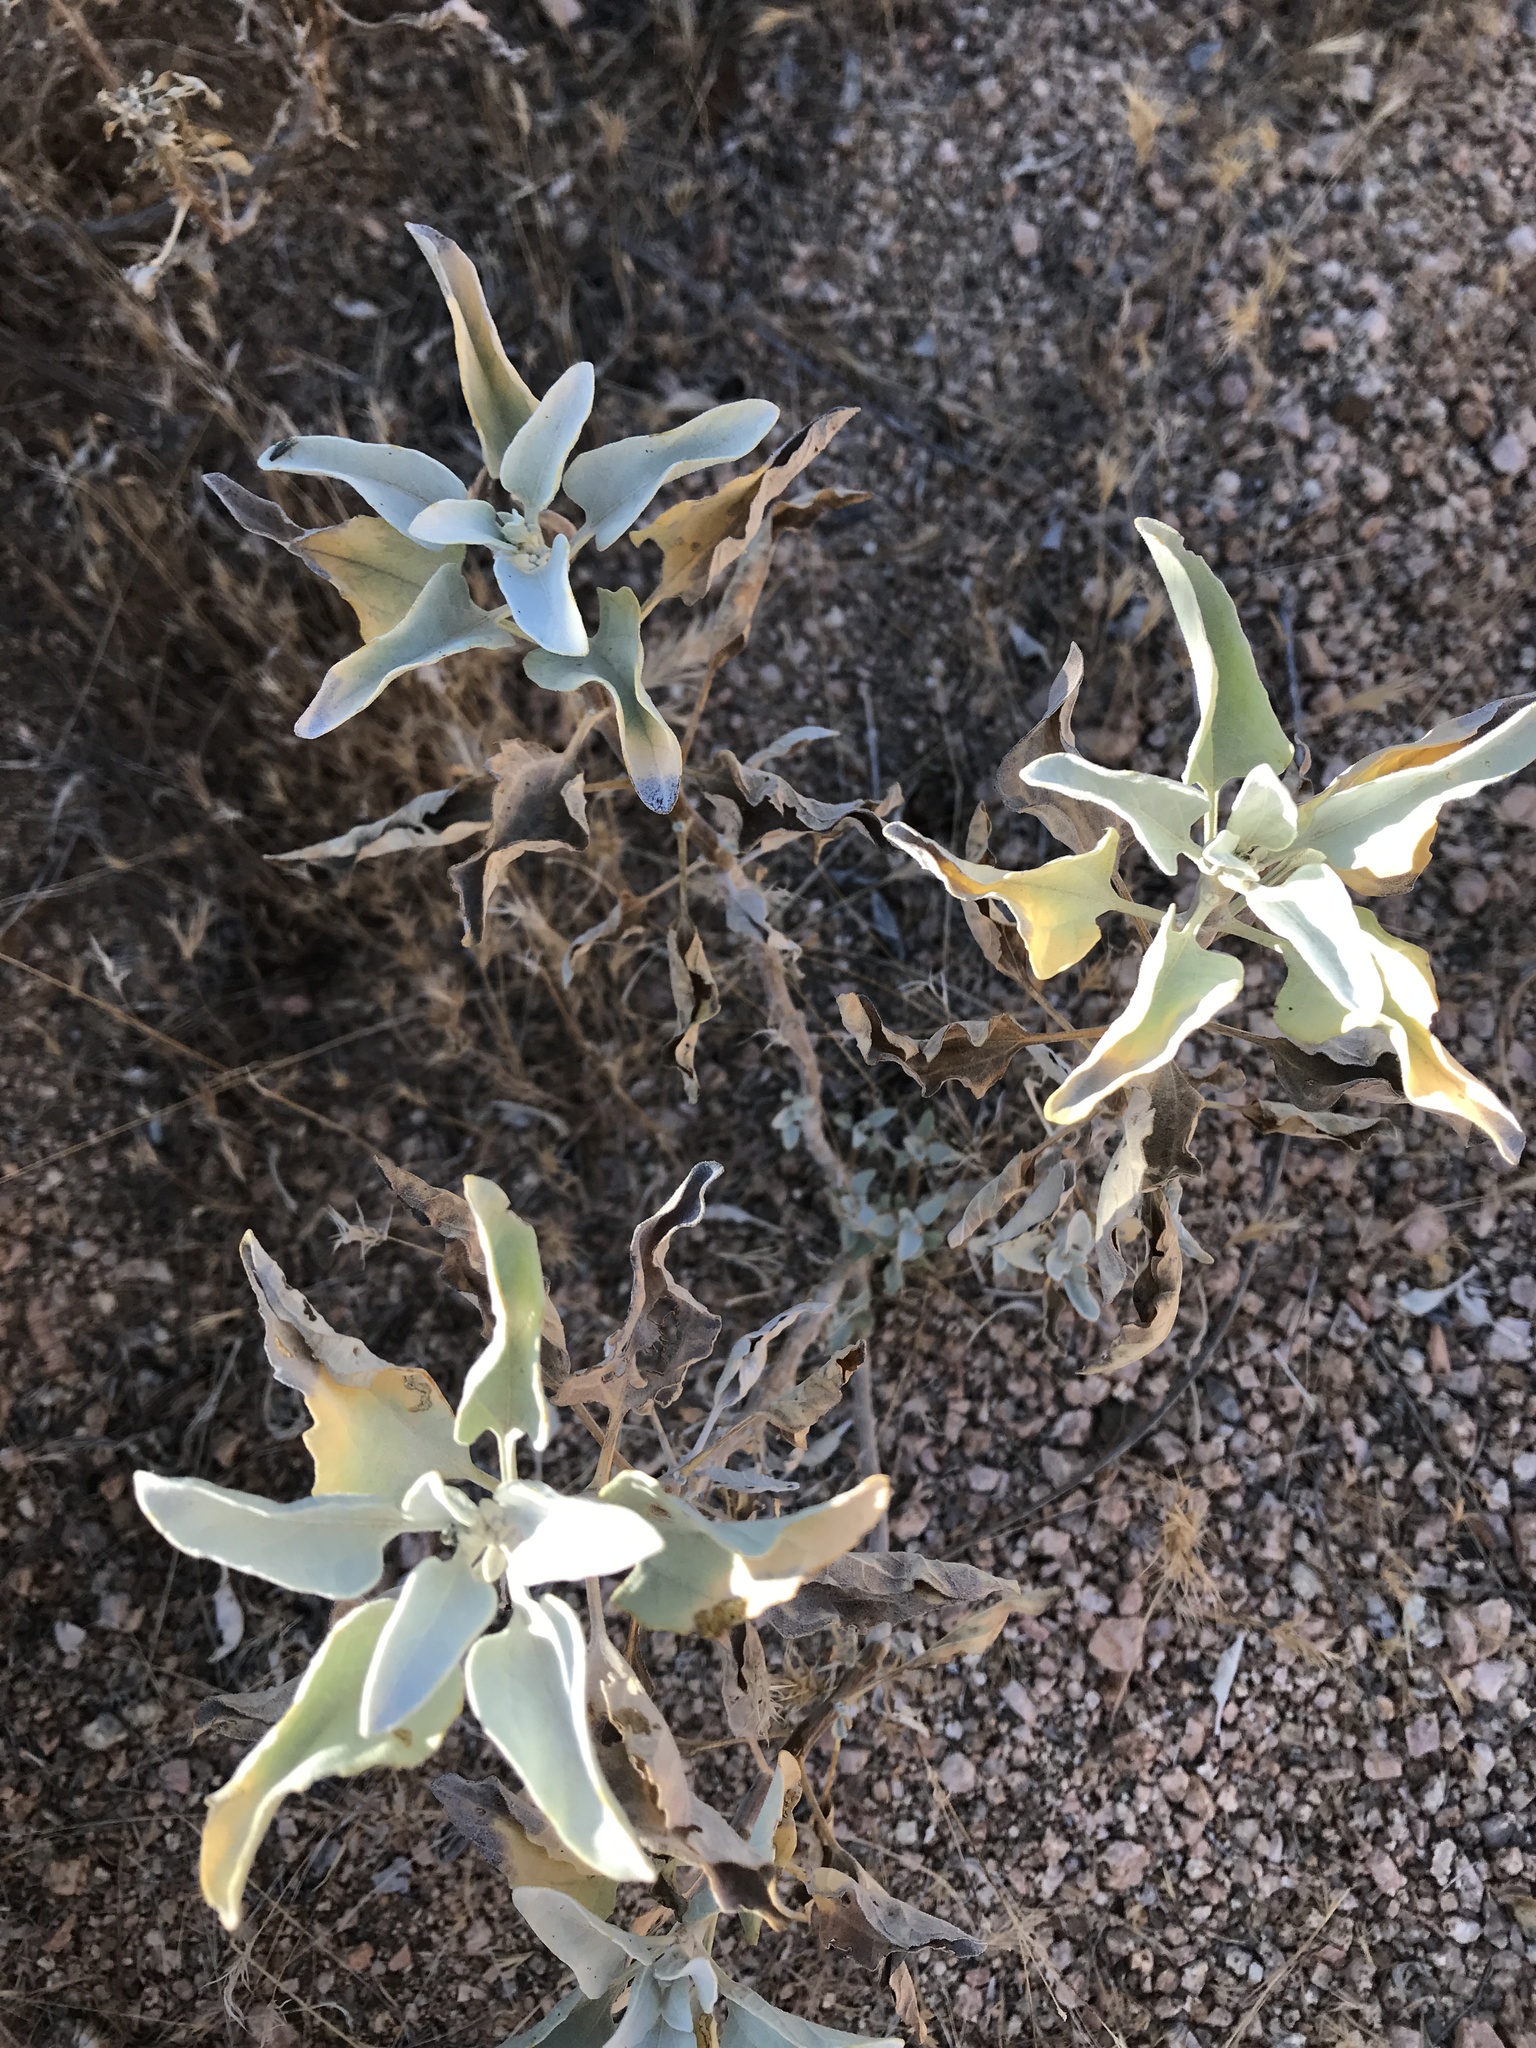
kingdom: Plantae
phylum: Tracheophyta
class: Magnoliopsida
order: Asterales
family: Asteraceae
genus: Encelia
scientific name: Encelia farinosa
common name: Brittlebush
